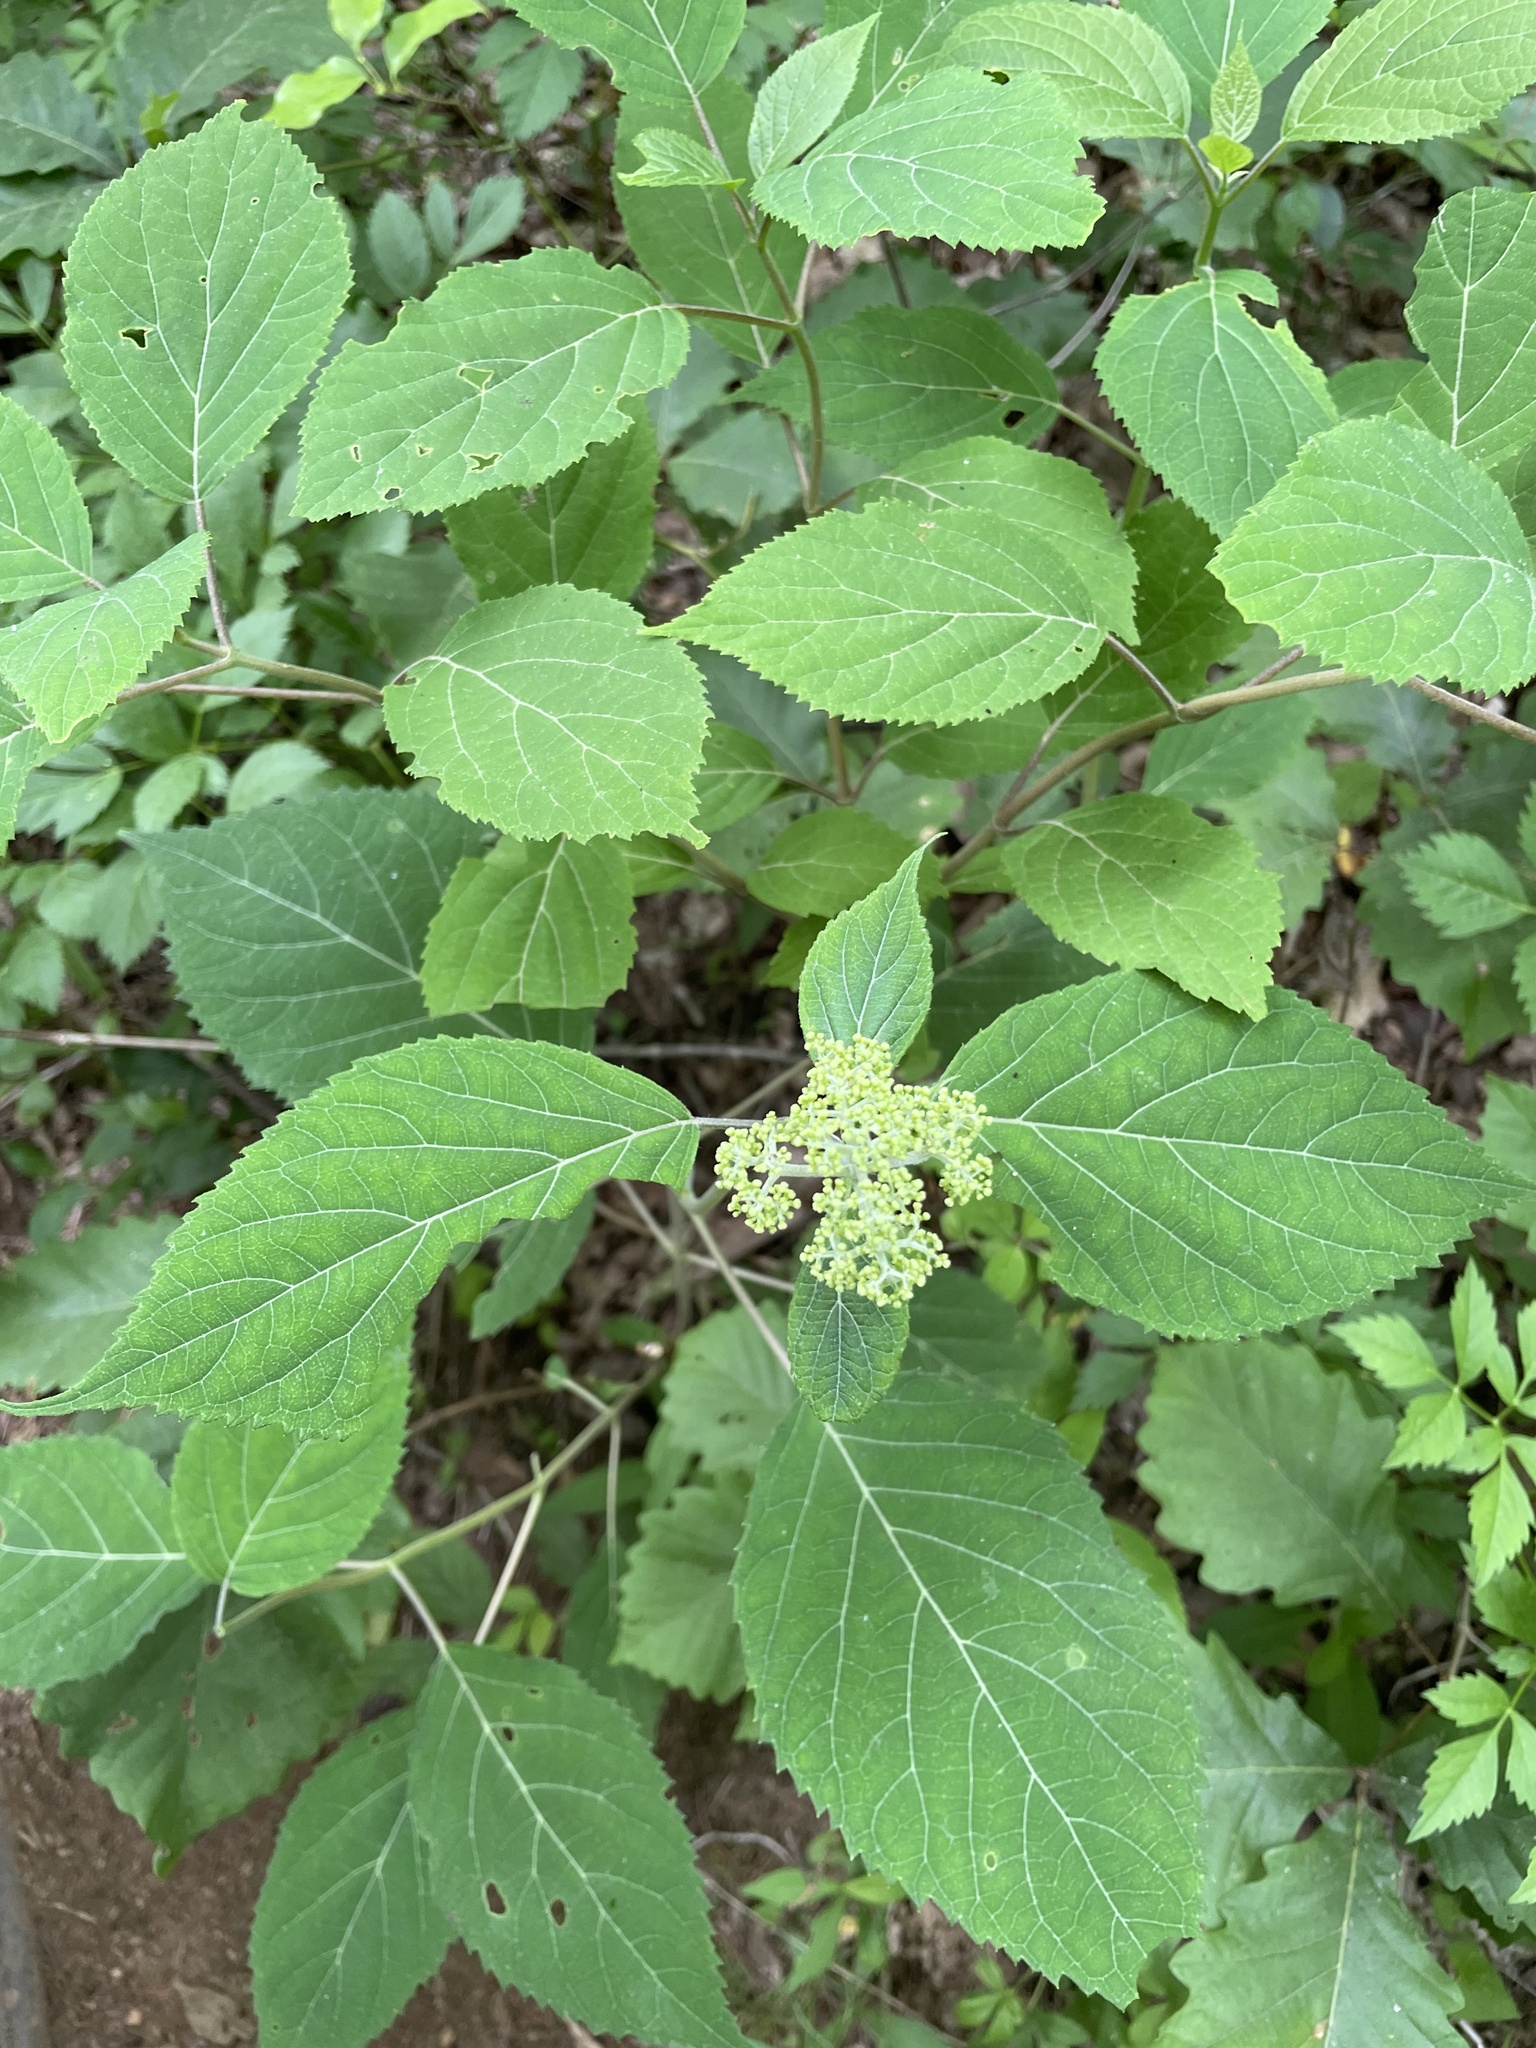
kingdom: Plantae
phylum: Tracheophyta
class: Magnoliopsida
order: Cornales
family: Hydrangeaceae
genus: Hydrangea
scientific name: Hydrangea arborescens
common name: Sevenbark
